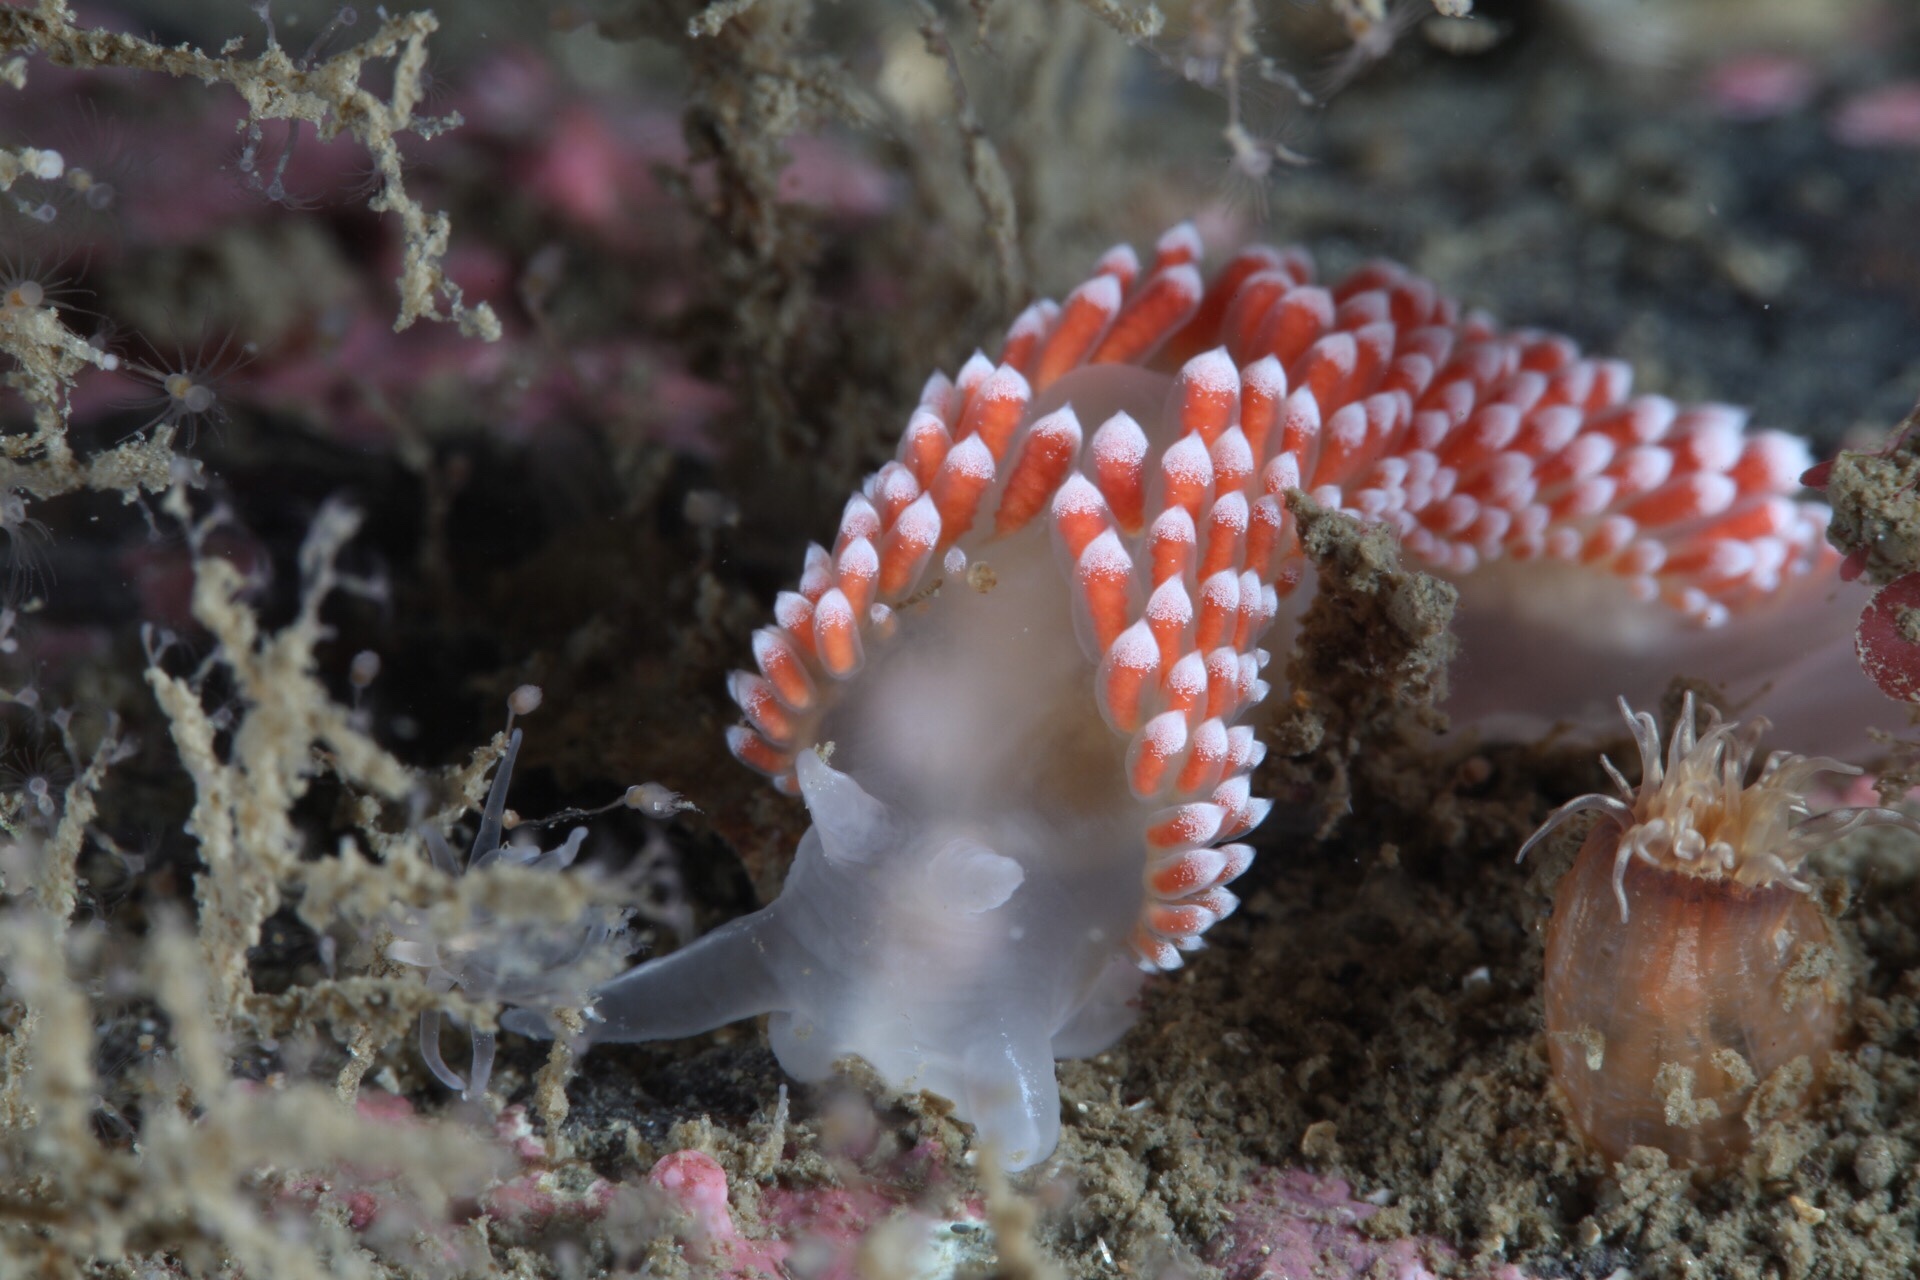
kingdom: Animalia
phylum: Mollusca
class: Gastropoda
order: Nudibranchia
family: Coryphellidae
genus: Coryphella
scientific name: Coryphella verrucosa
